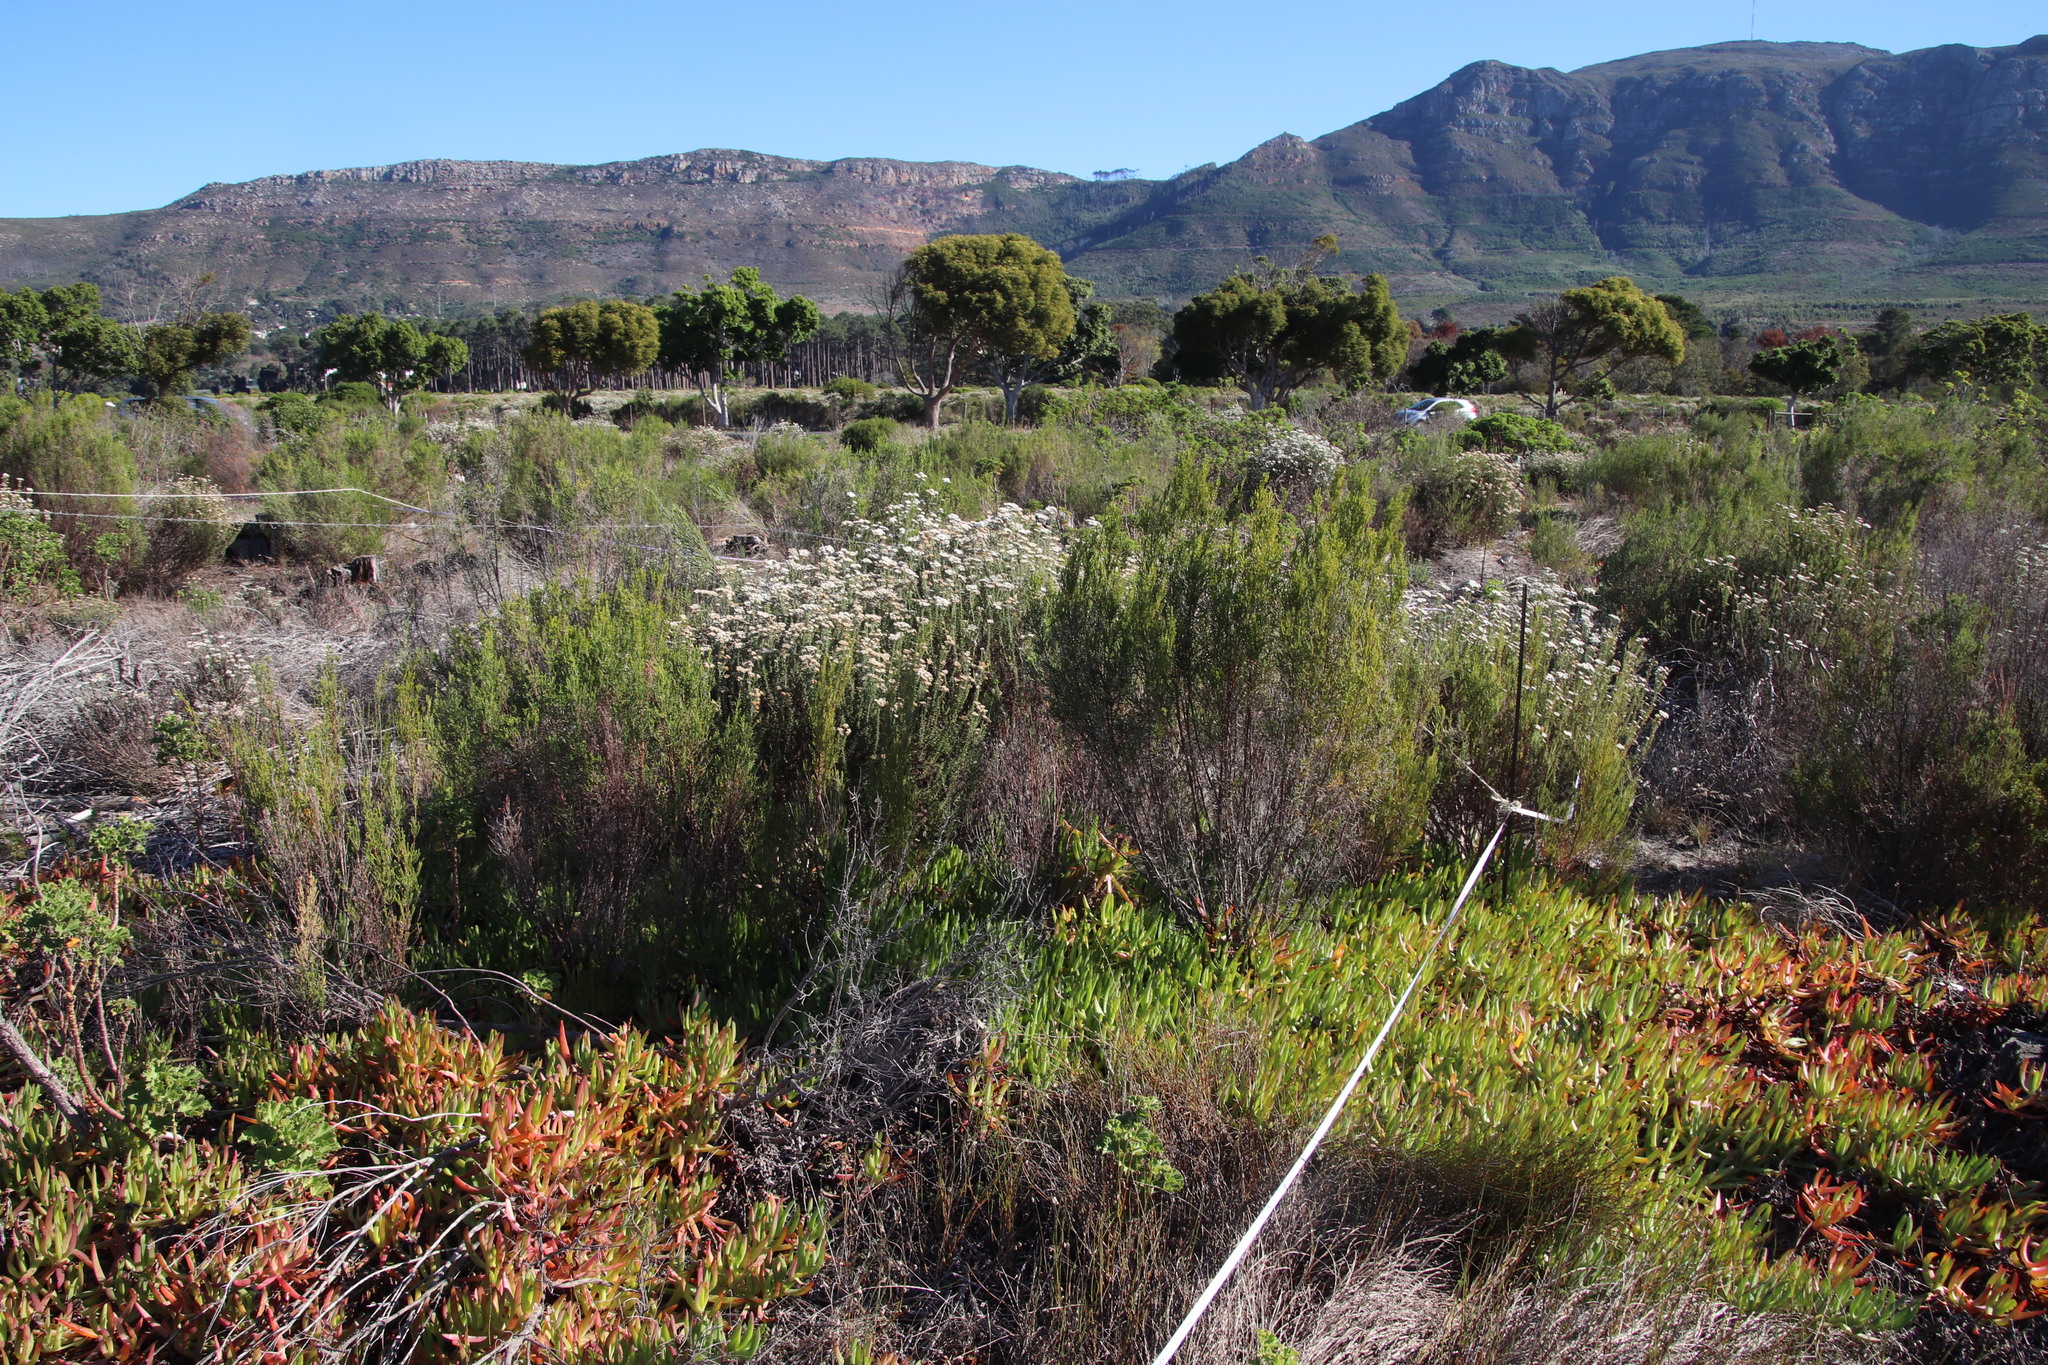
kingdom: Plantae
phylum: Tracheophyta
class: Magnoliopsida
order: Malvales
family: Thymelaeaceae
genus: Passerina
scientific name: Passerina corymbosa
